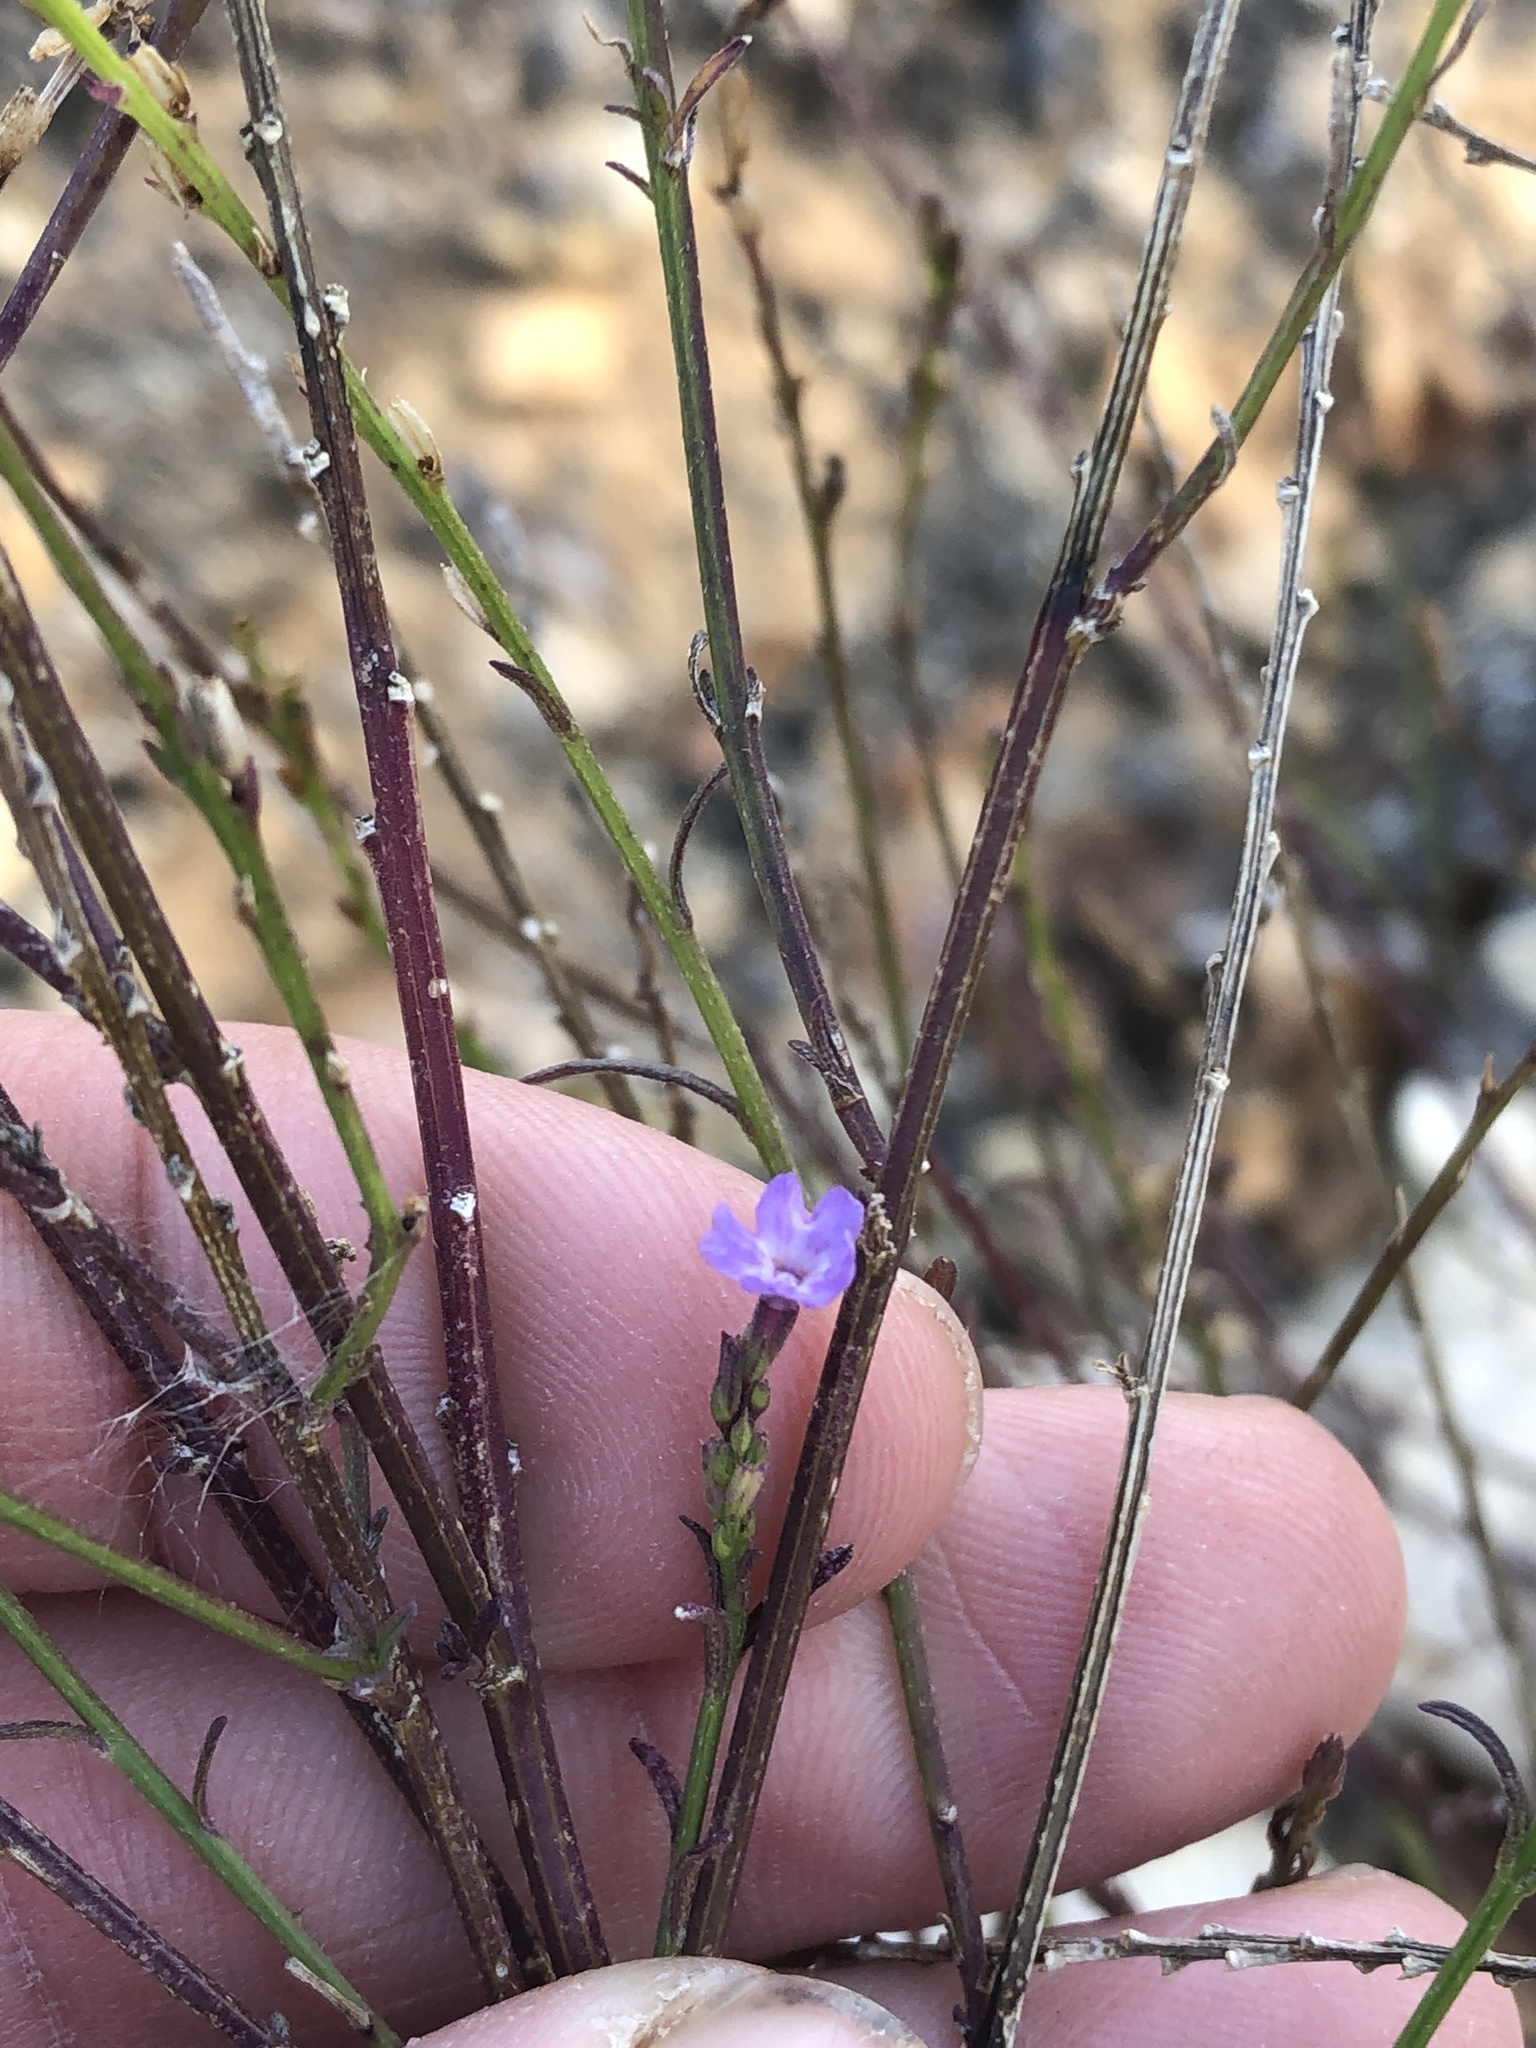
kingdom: Plantae
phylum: Tracheophyta
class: Magnoliopsida
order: Lamiales
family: Verbenaceae
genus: Verbena
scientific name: Verbena halei
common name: Texas vervain
